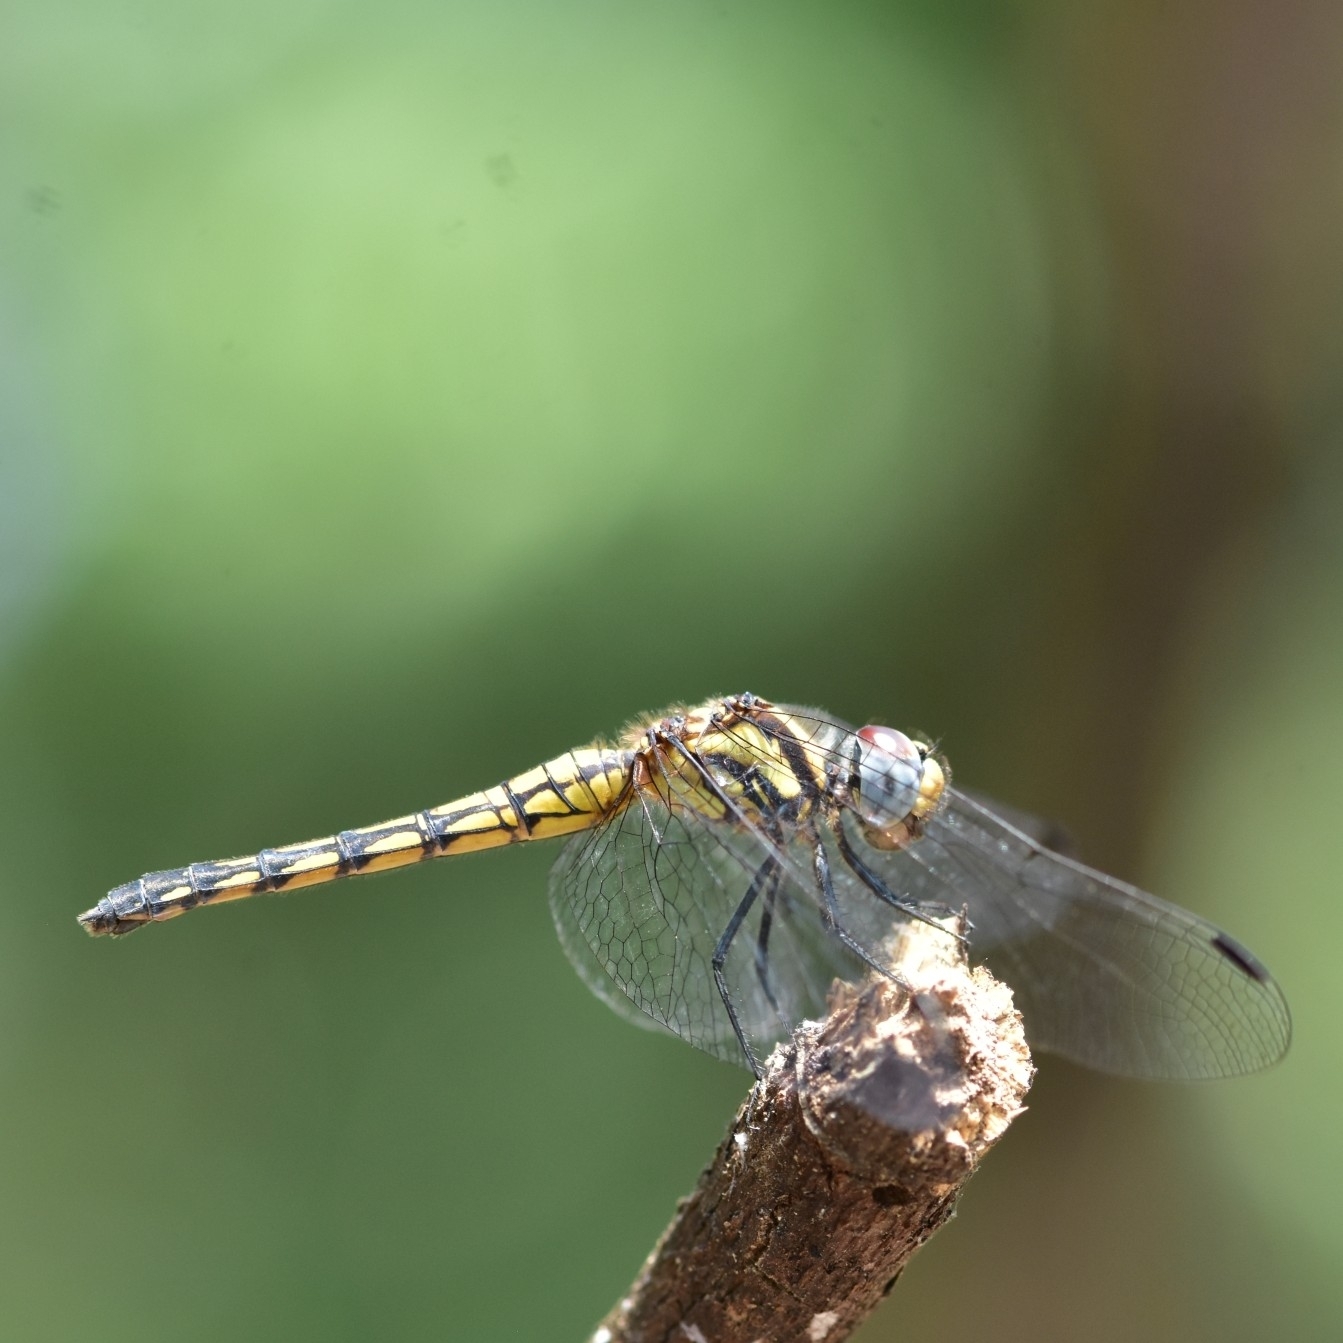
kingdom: Animalia
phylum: Arthropoda
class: Insecta
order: Odonata
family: Libellulidae
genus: Trithemis
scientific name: Trithemis festiva
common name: Indigo dropwing
